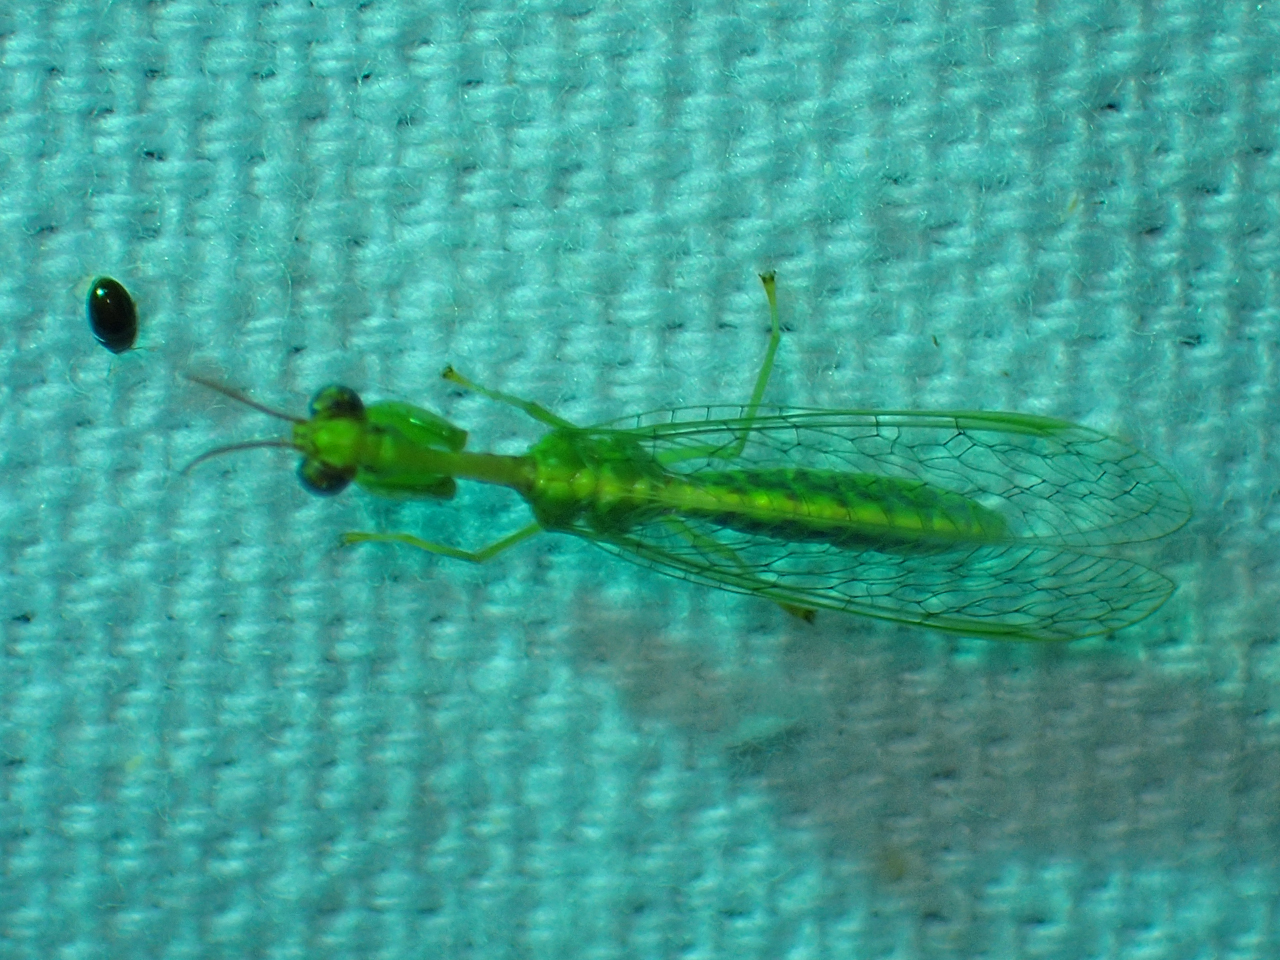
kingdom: Animalia
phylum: Arthropoda
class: Insecta
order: Neuroptera
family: Mantispidae
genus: Zeugomantispa
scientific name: Zeugomantispa minuta
